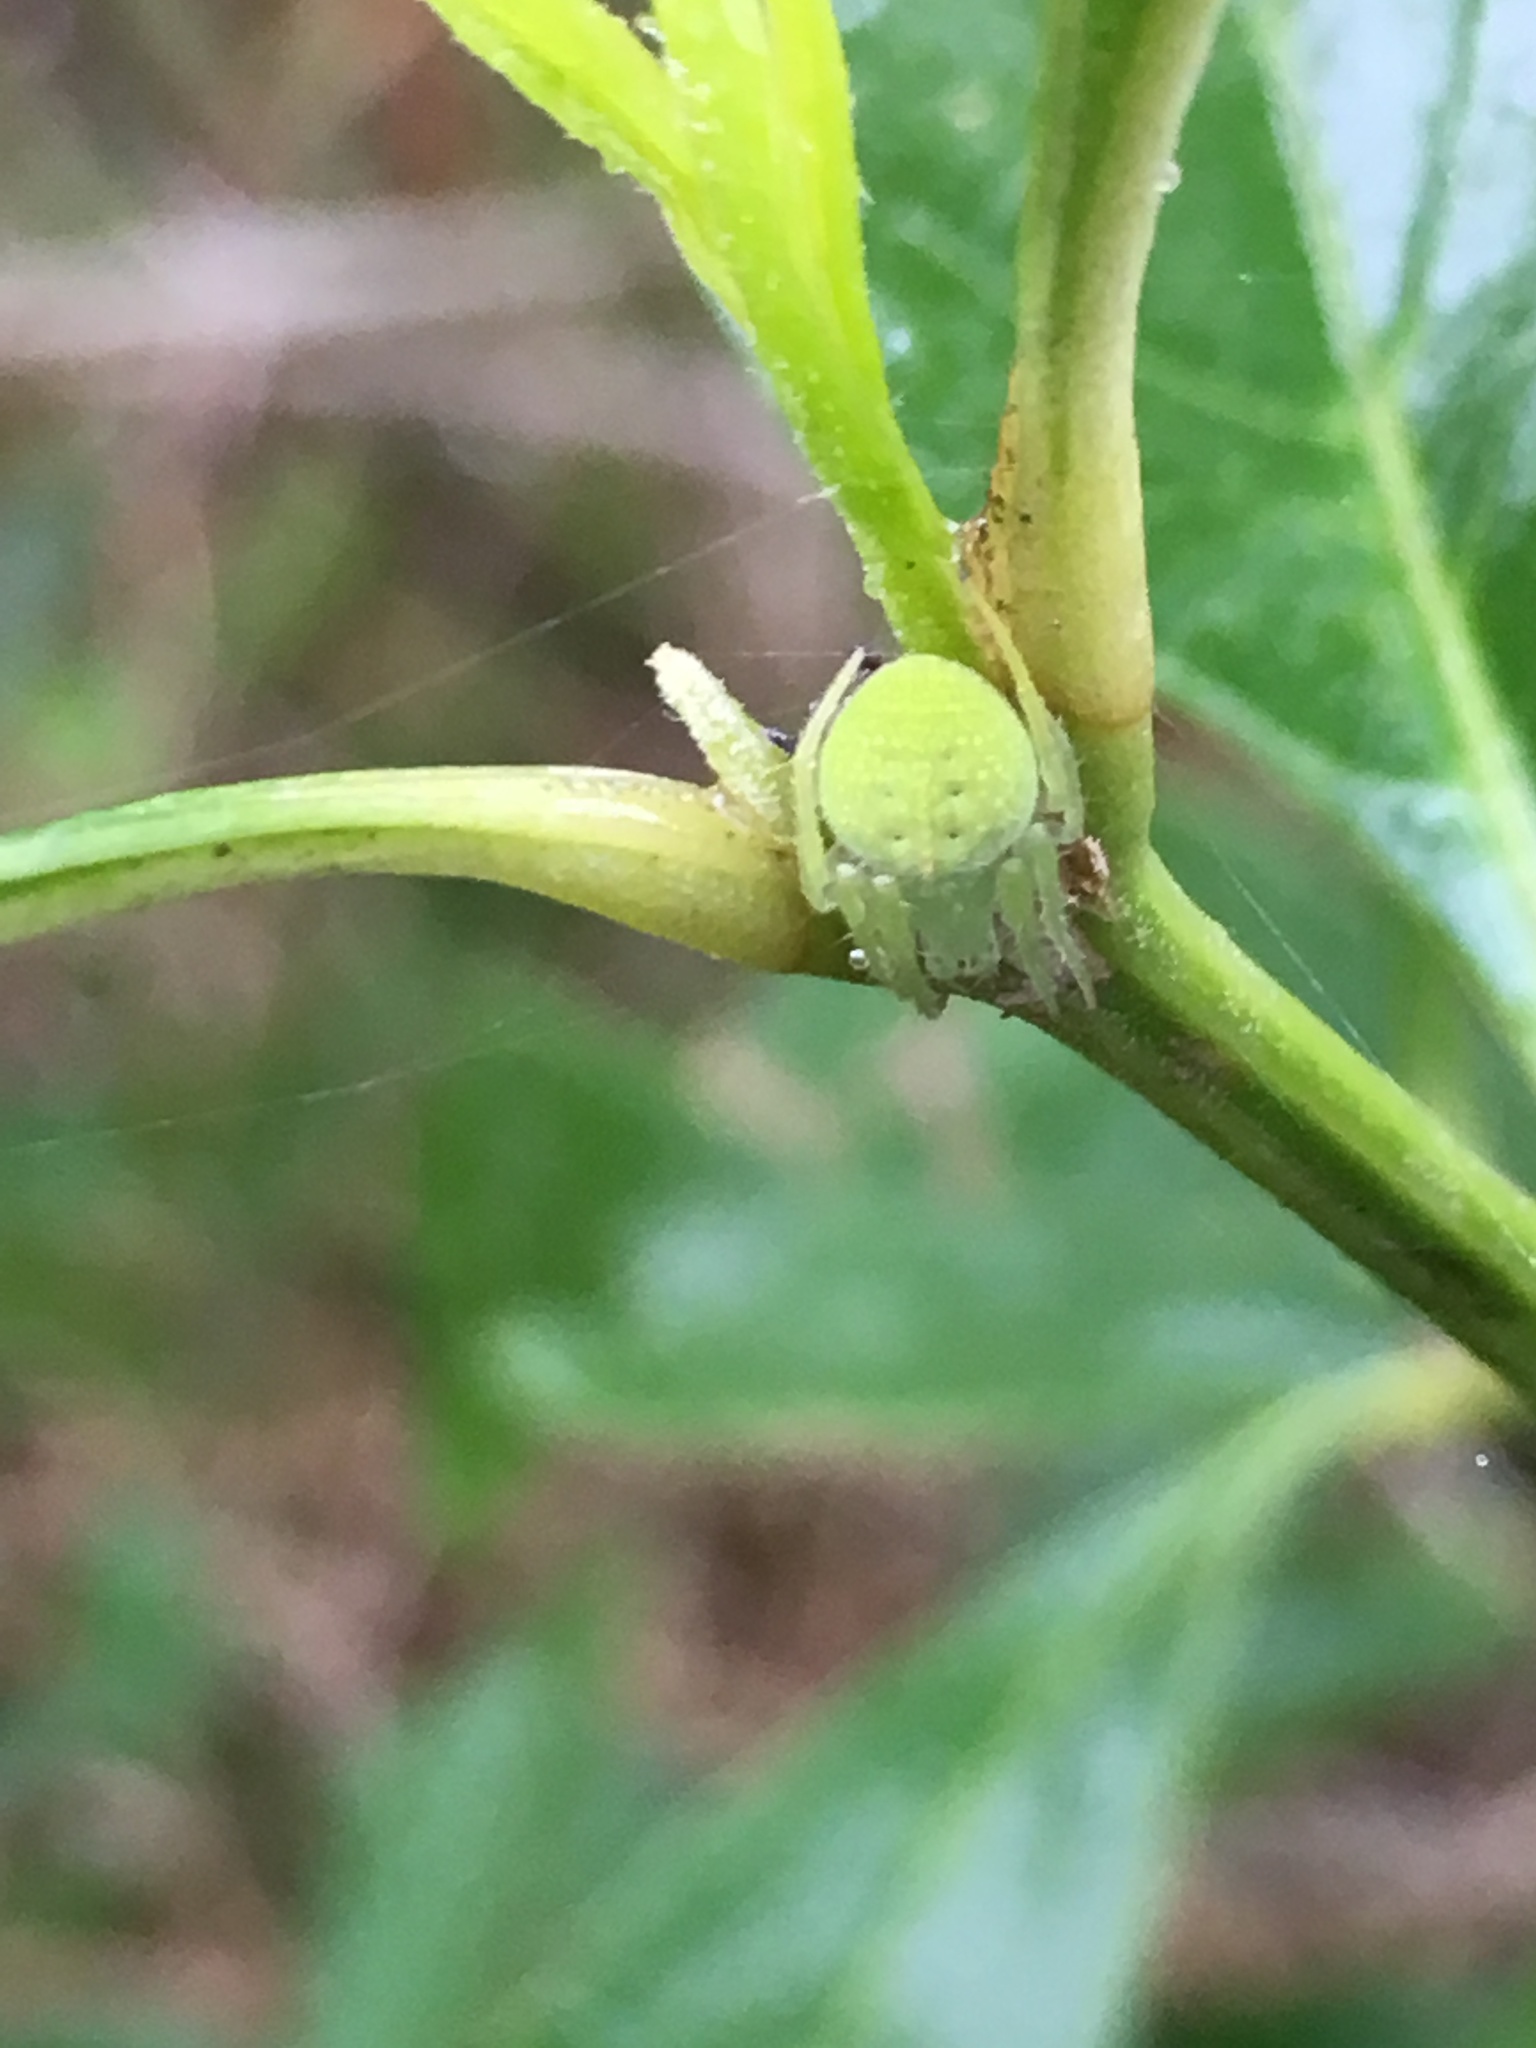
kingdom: Animalia
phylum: Arthropoda
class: Arachnida
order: Araneae
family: Araneidae
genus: Araneus
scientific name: Araneus uniformis
